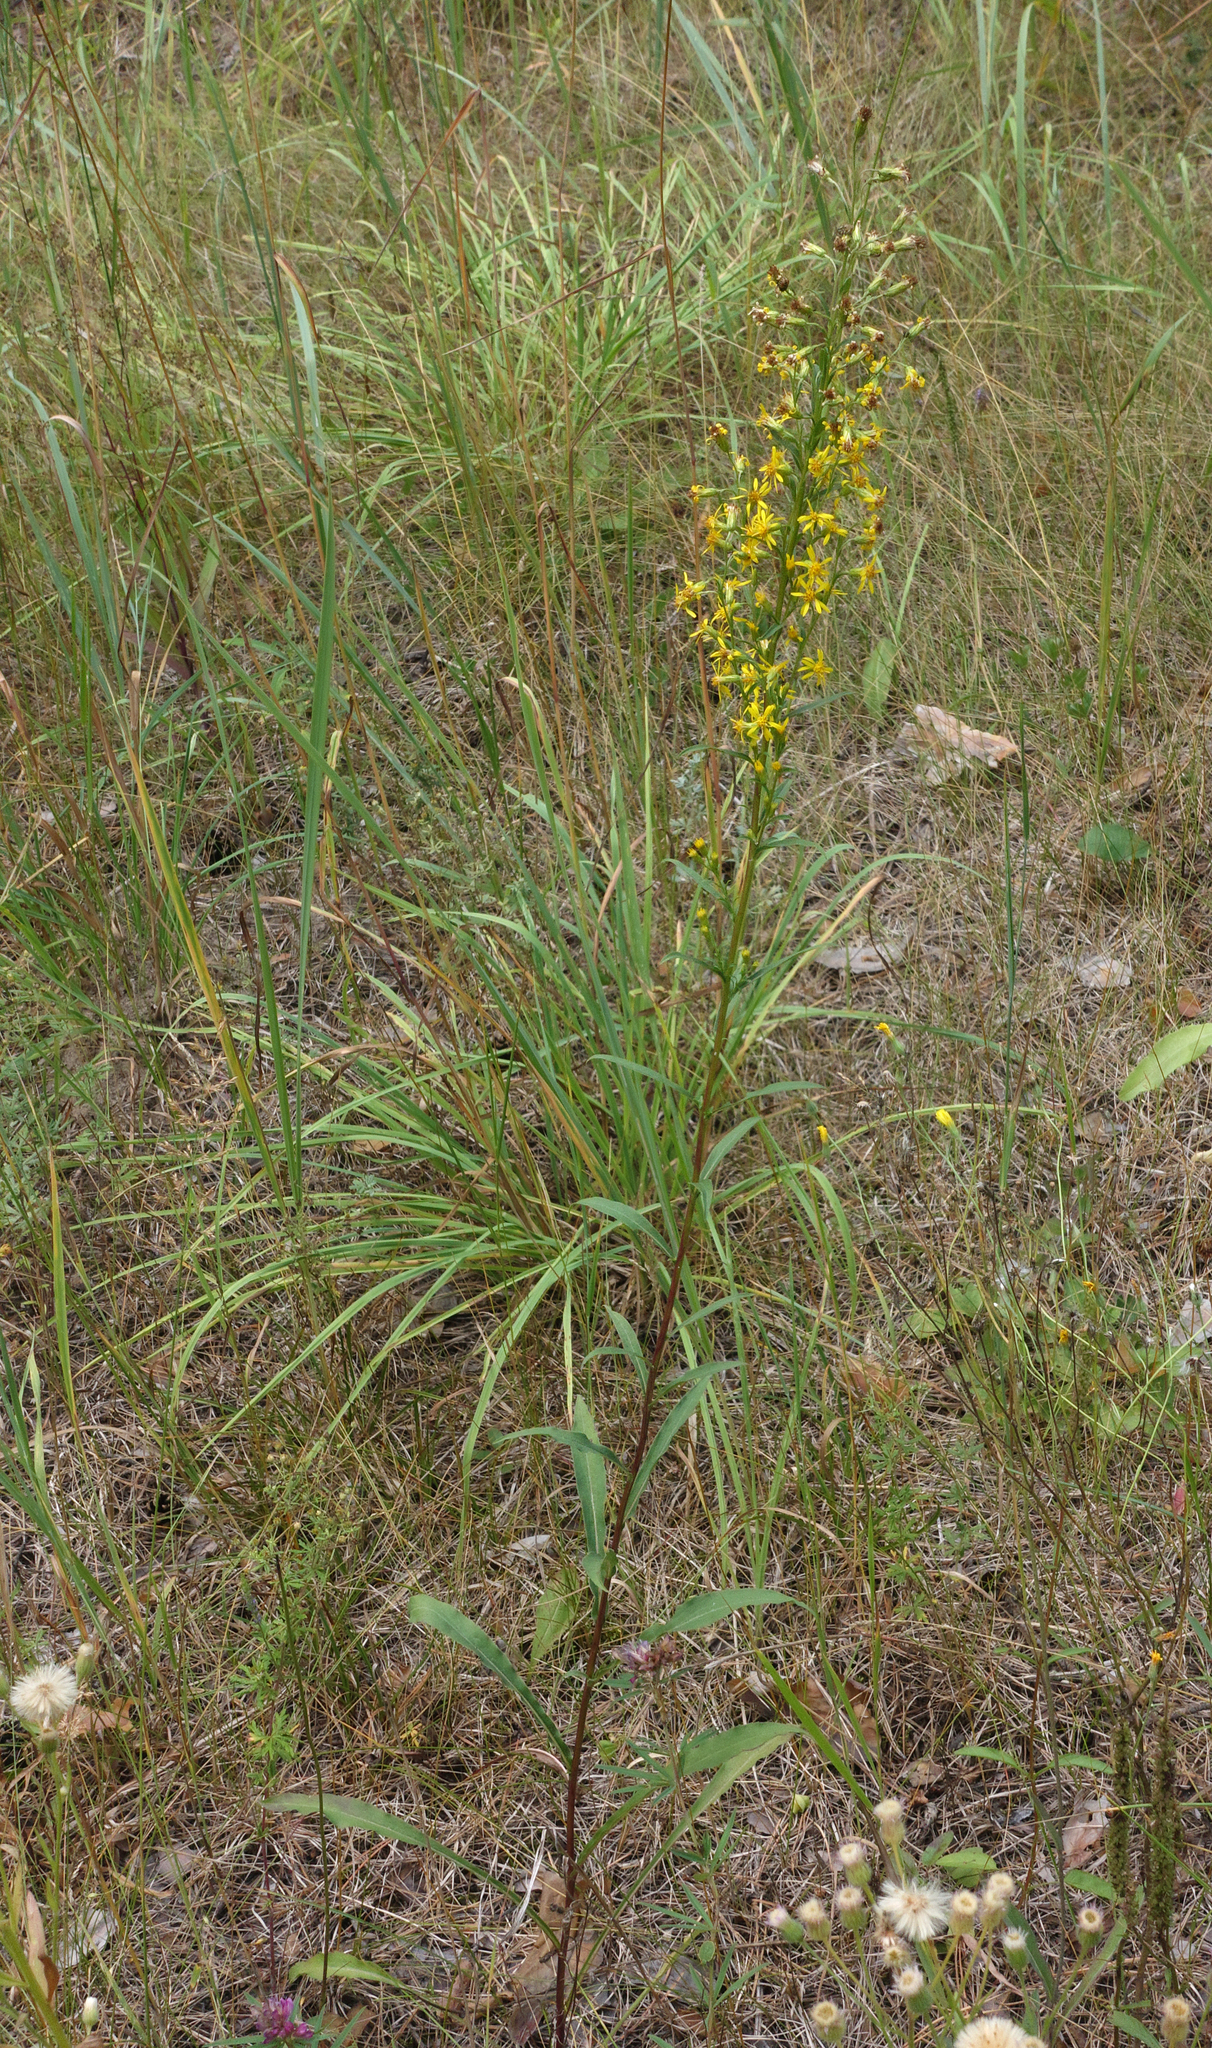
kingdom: Plantae
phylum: Tracheophyta
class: Magnoliopsida
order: Asterales
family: Asteraceae
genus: Solidago
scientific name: Solidago virgaurea
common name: Goldenrod
